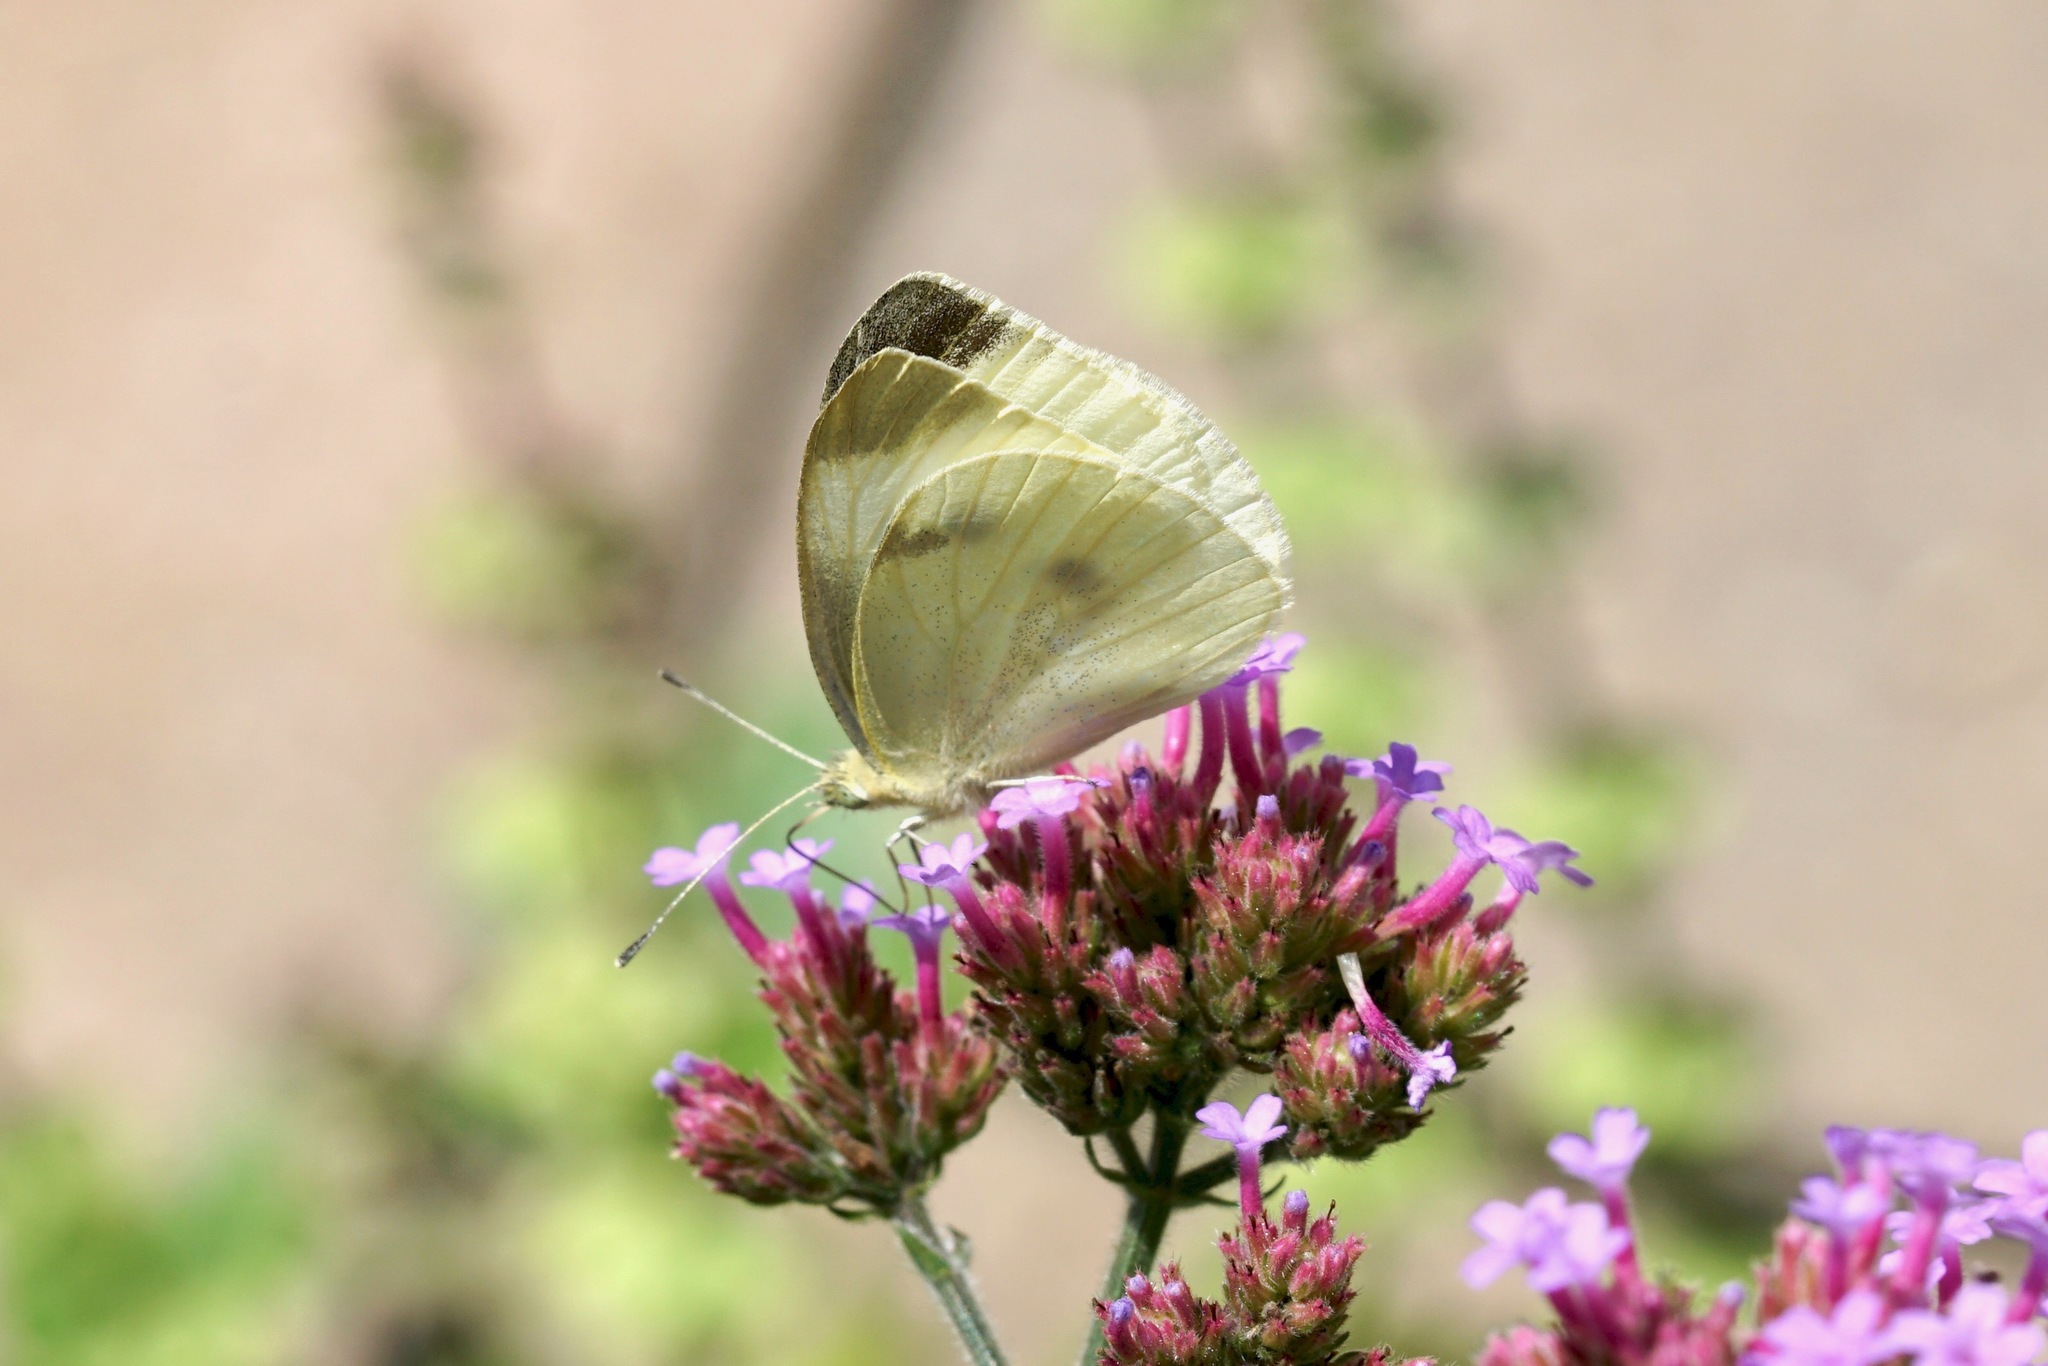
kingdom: Animalia
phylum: Arthropoda
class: Insecta
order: Lepidoptera
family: Pieridae
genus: Pieris
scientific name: Pieris rapae
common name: Small white
